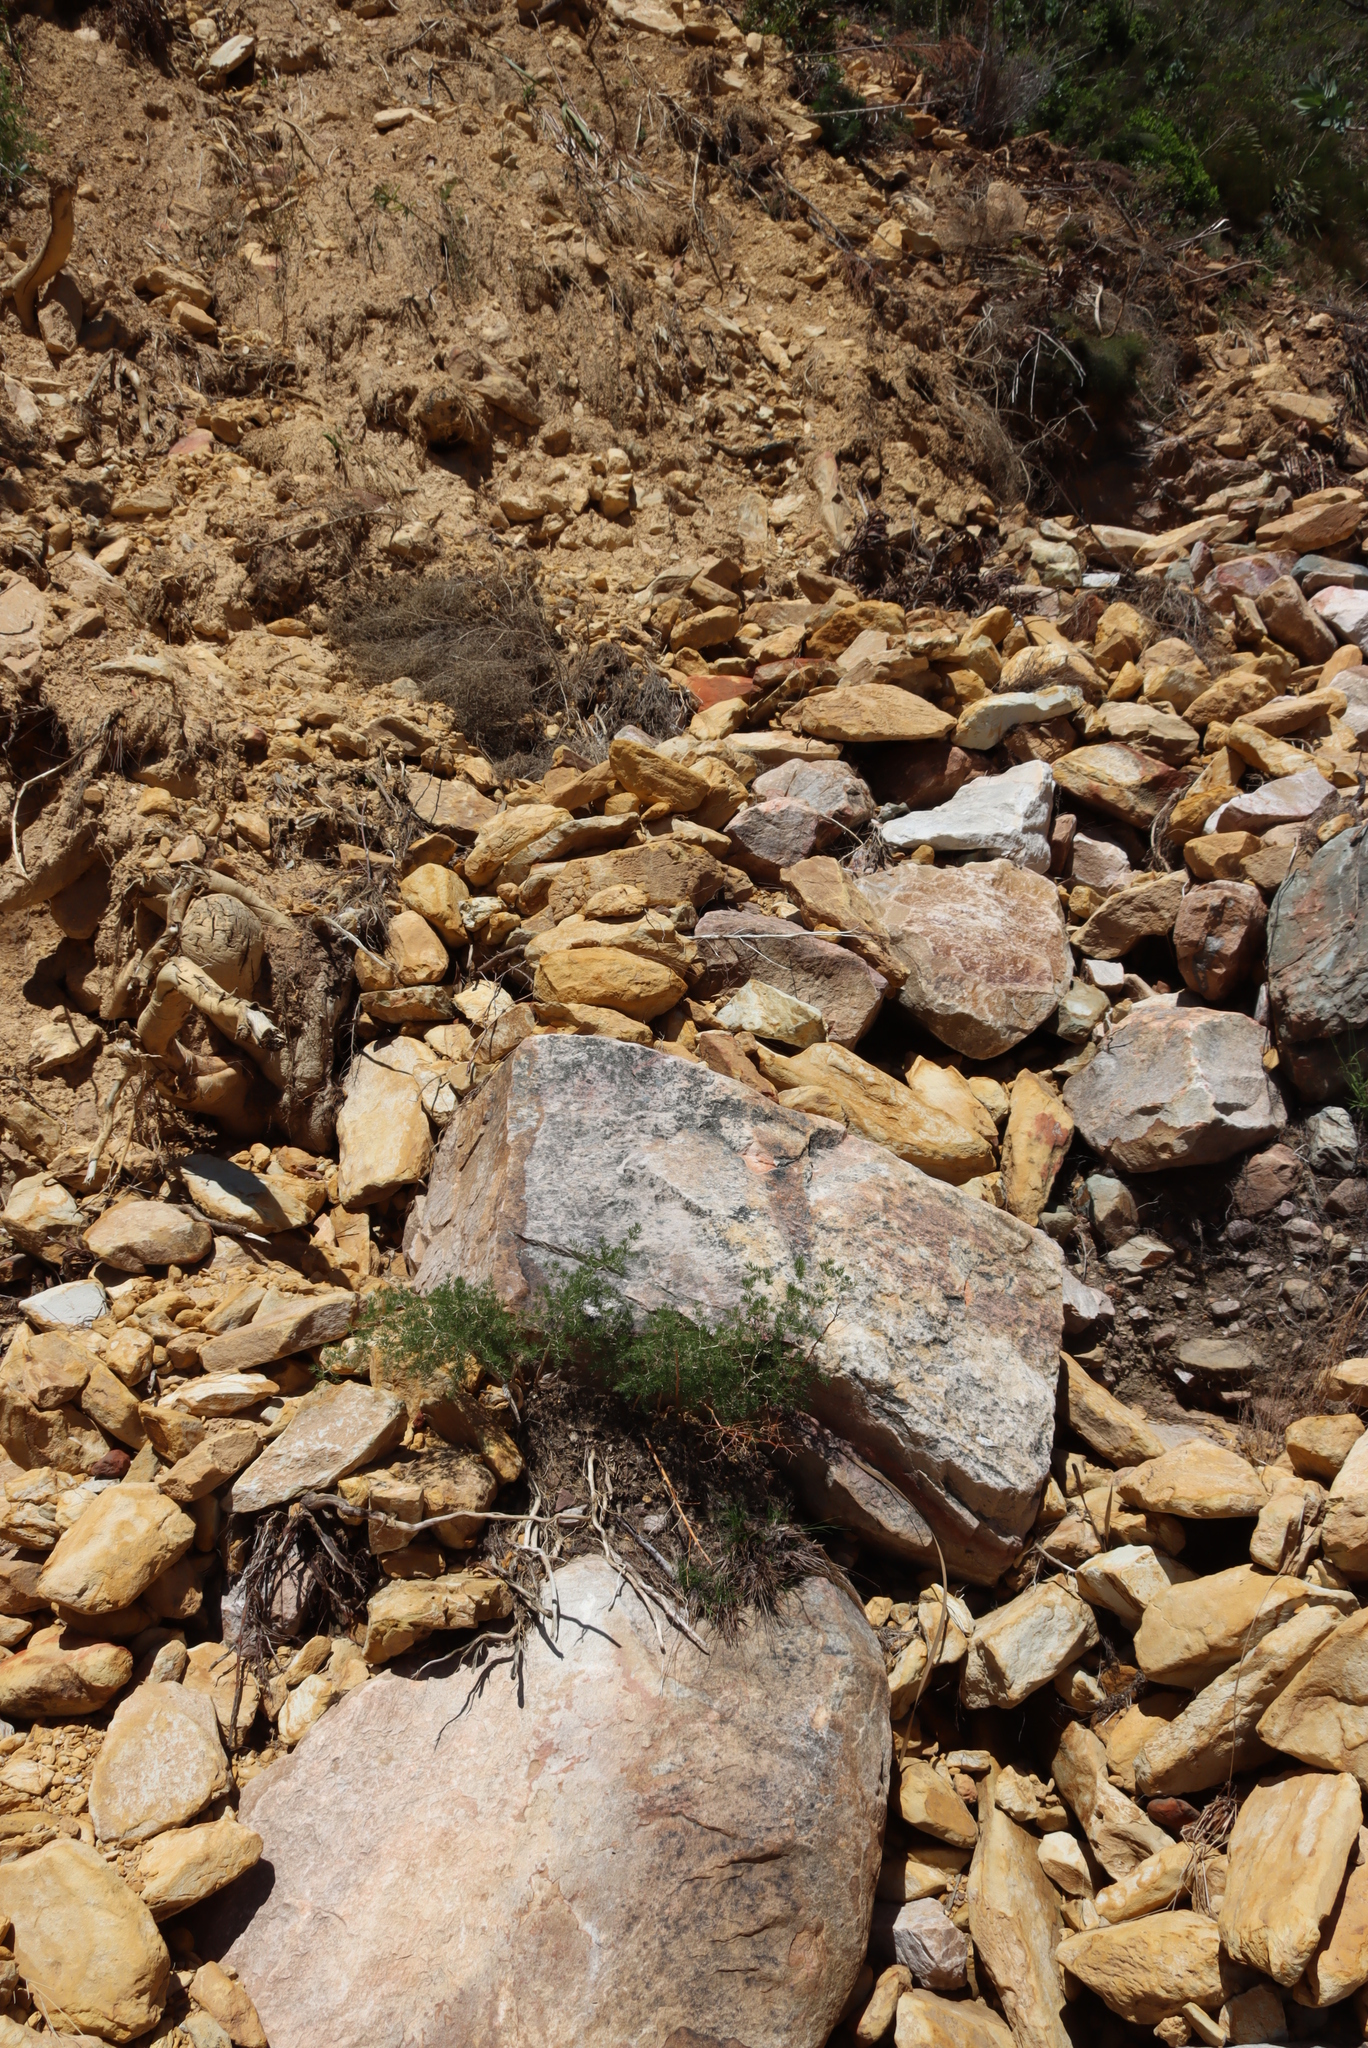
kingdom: Plantae
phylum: Tracheophyta
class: Liliopsida
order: Asparagales
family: Asparagaceae
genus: Asparagus
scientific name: Asparagus lignosus
